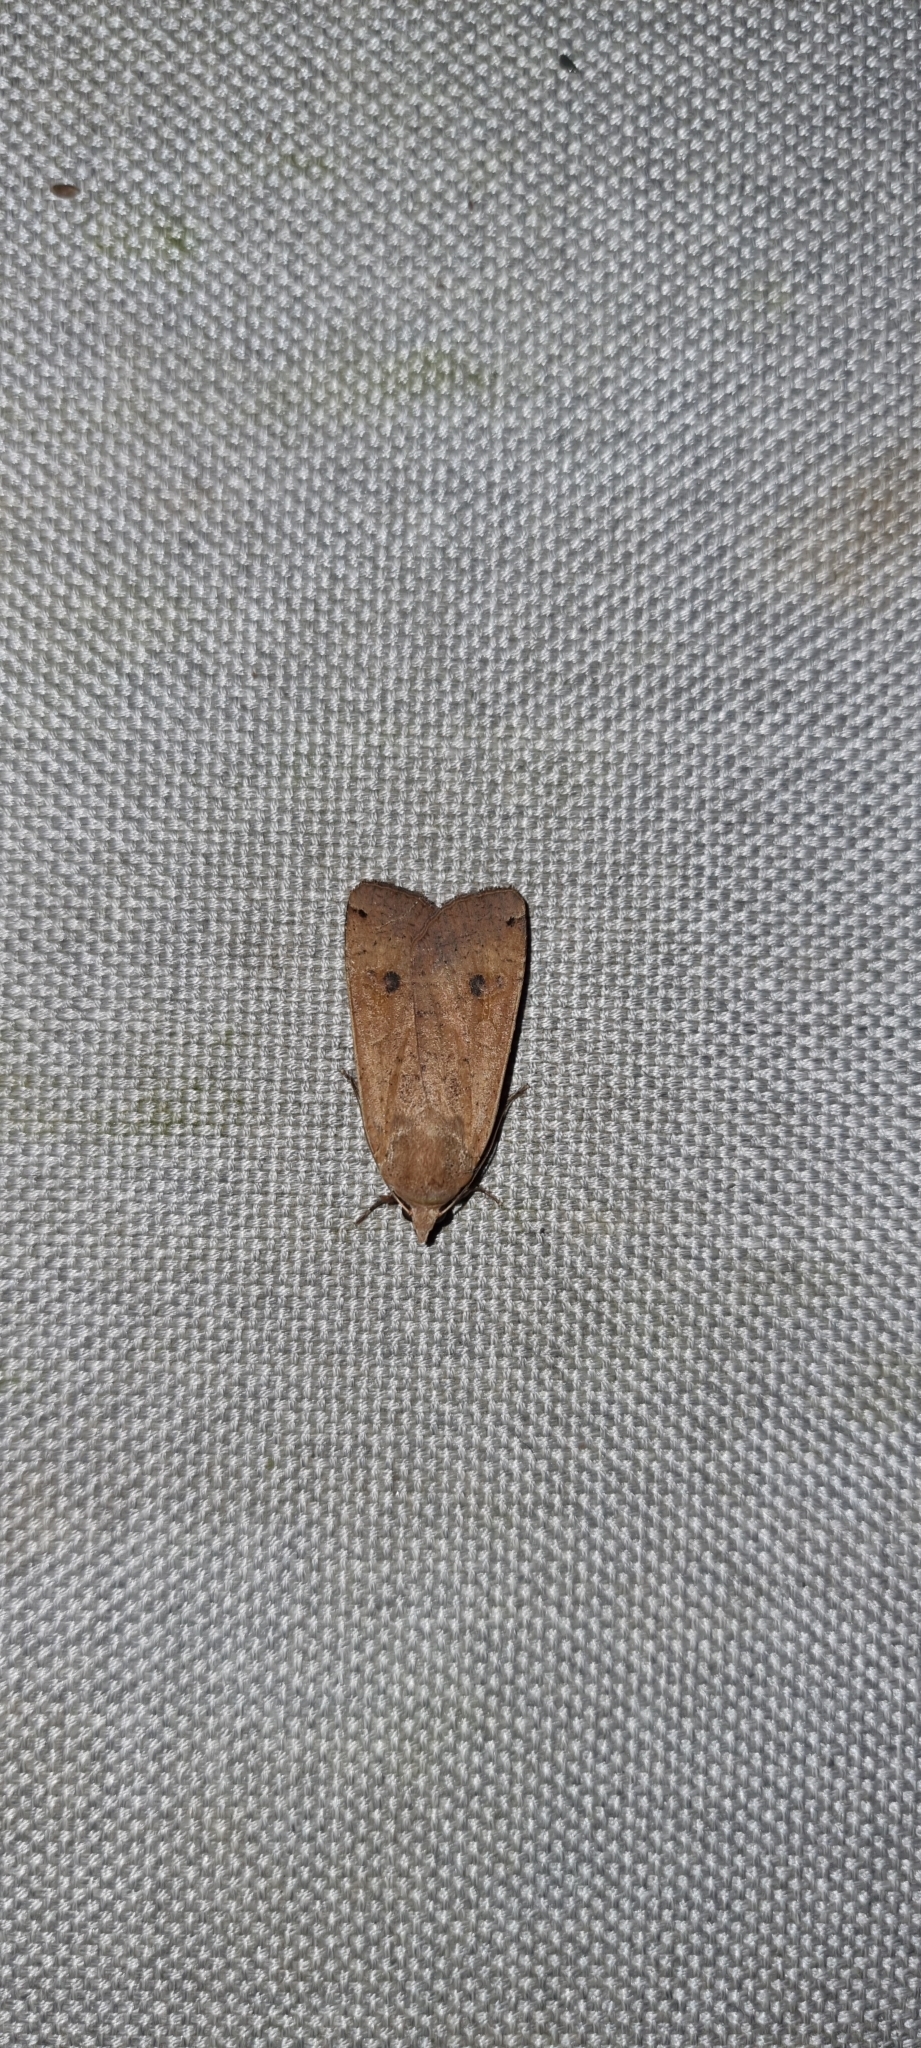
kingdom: Animalia
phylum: Arthropoda
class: Insecta
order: Lepidoptera
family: Noctuidae
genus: Noctua
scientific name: Noctua pronuba
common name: Large yellow underwing
